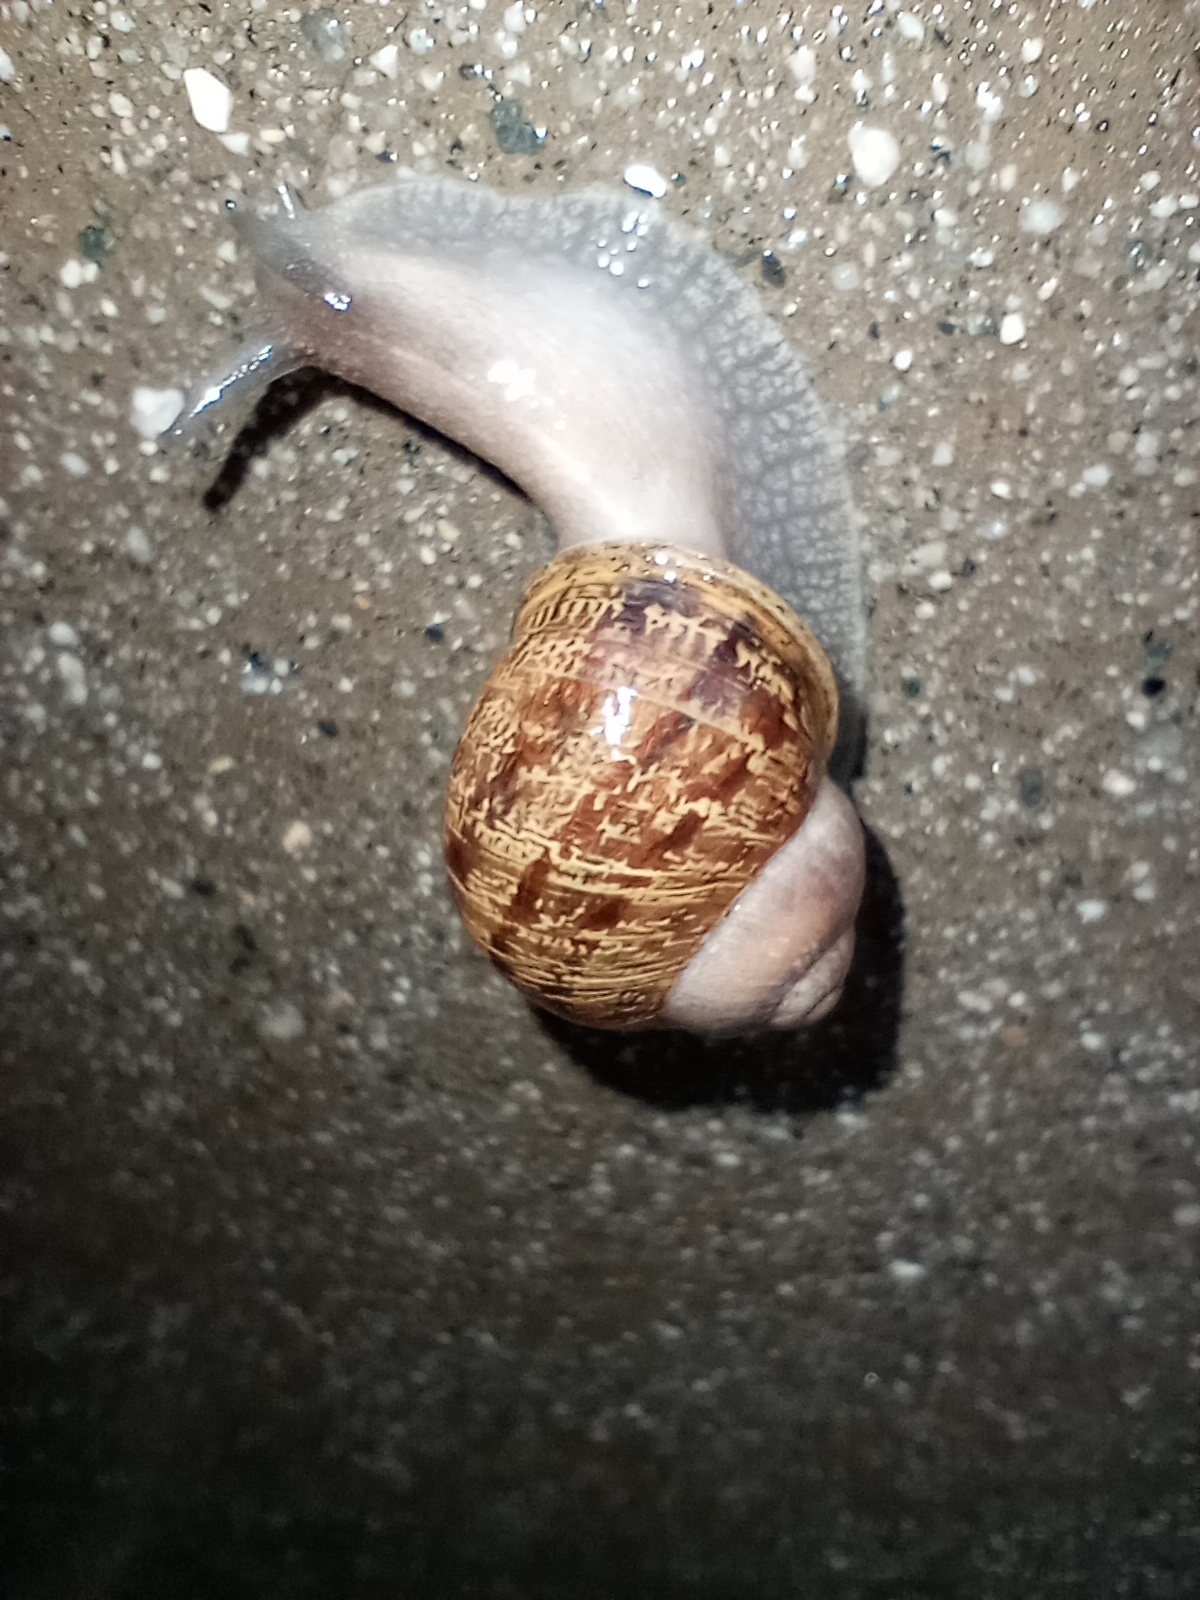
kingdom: Animalia
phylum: Mollusca
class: Gastropoda
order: Stylommatophora
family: Helicidae
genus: Cornu
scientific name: Cornu aspersum
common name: Brown garden snail
